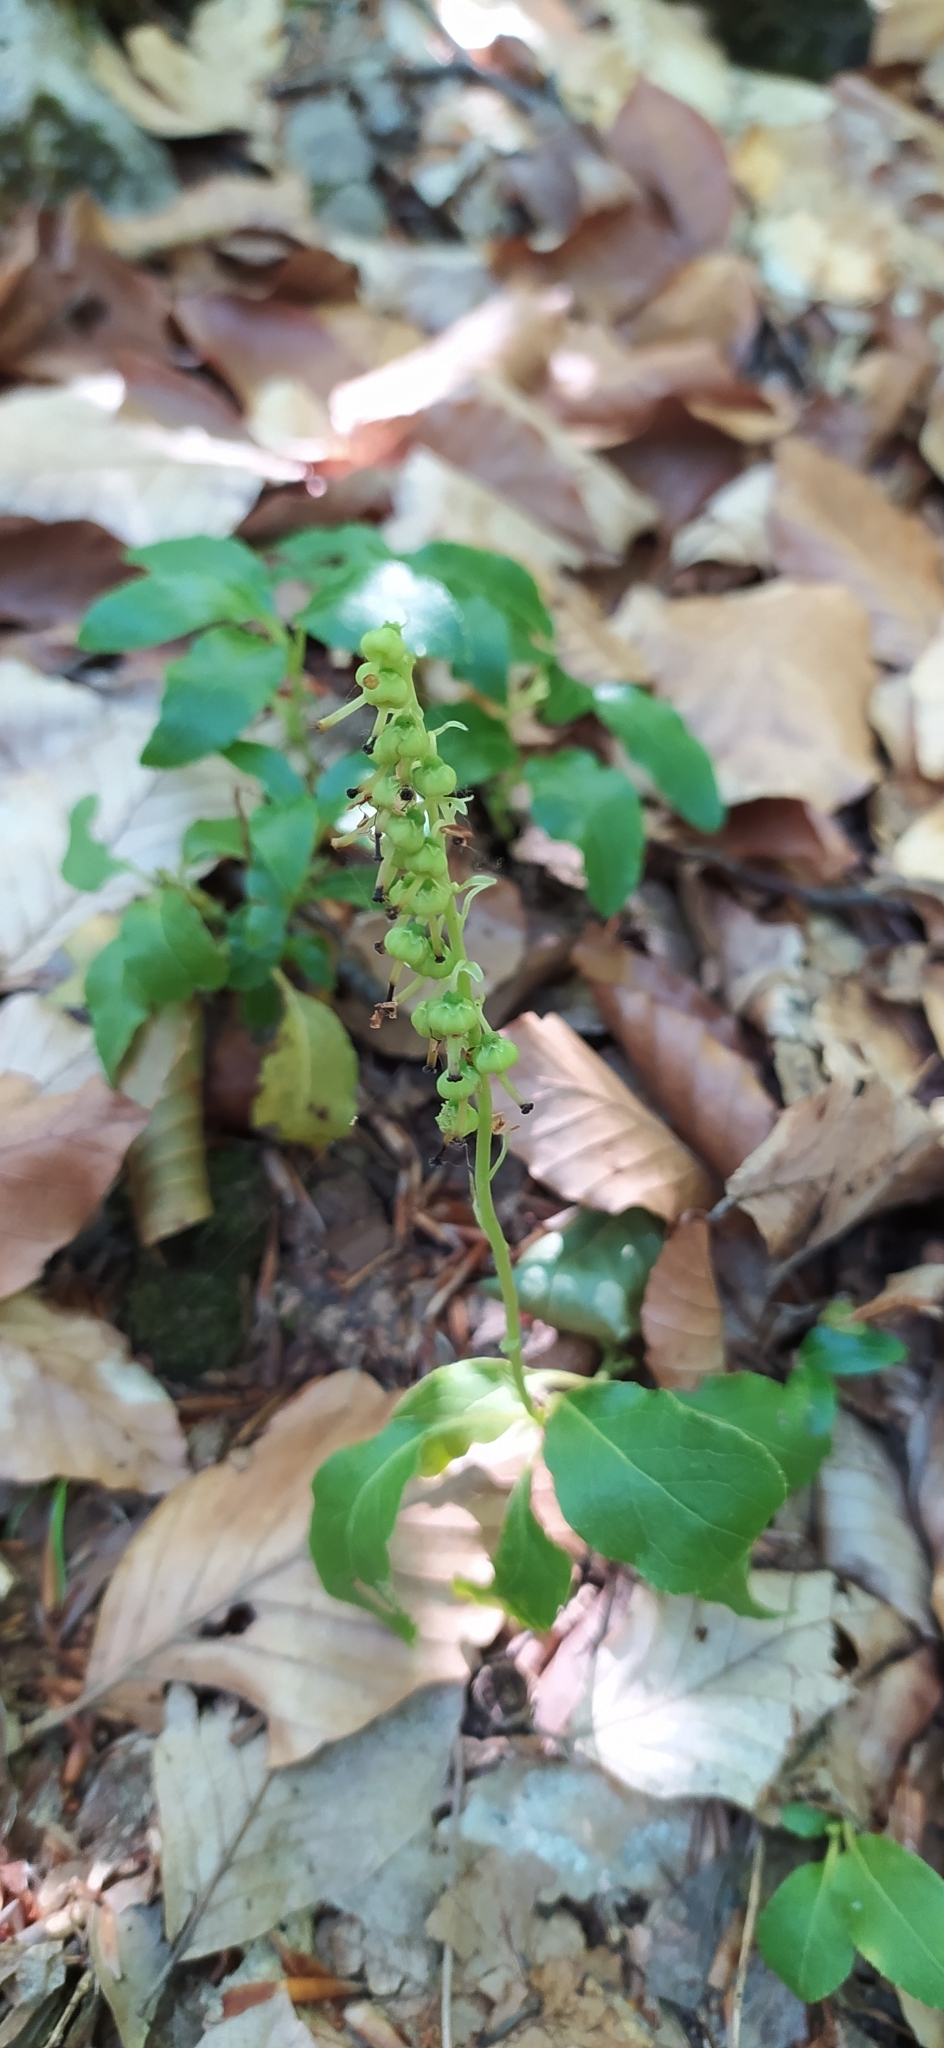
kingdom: Plantae
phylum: Tracheophyta
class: Magnoliopsida
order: Ericales
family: Ericaceae
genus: Orthilia
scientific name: Orthilia secunda
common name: One-sided orthilia
